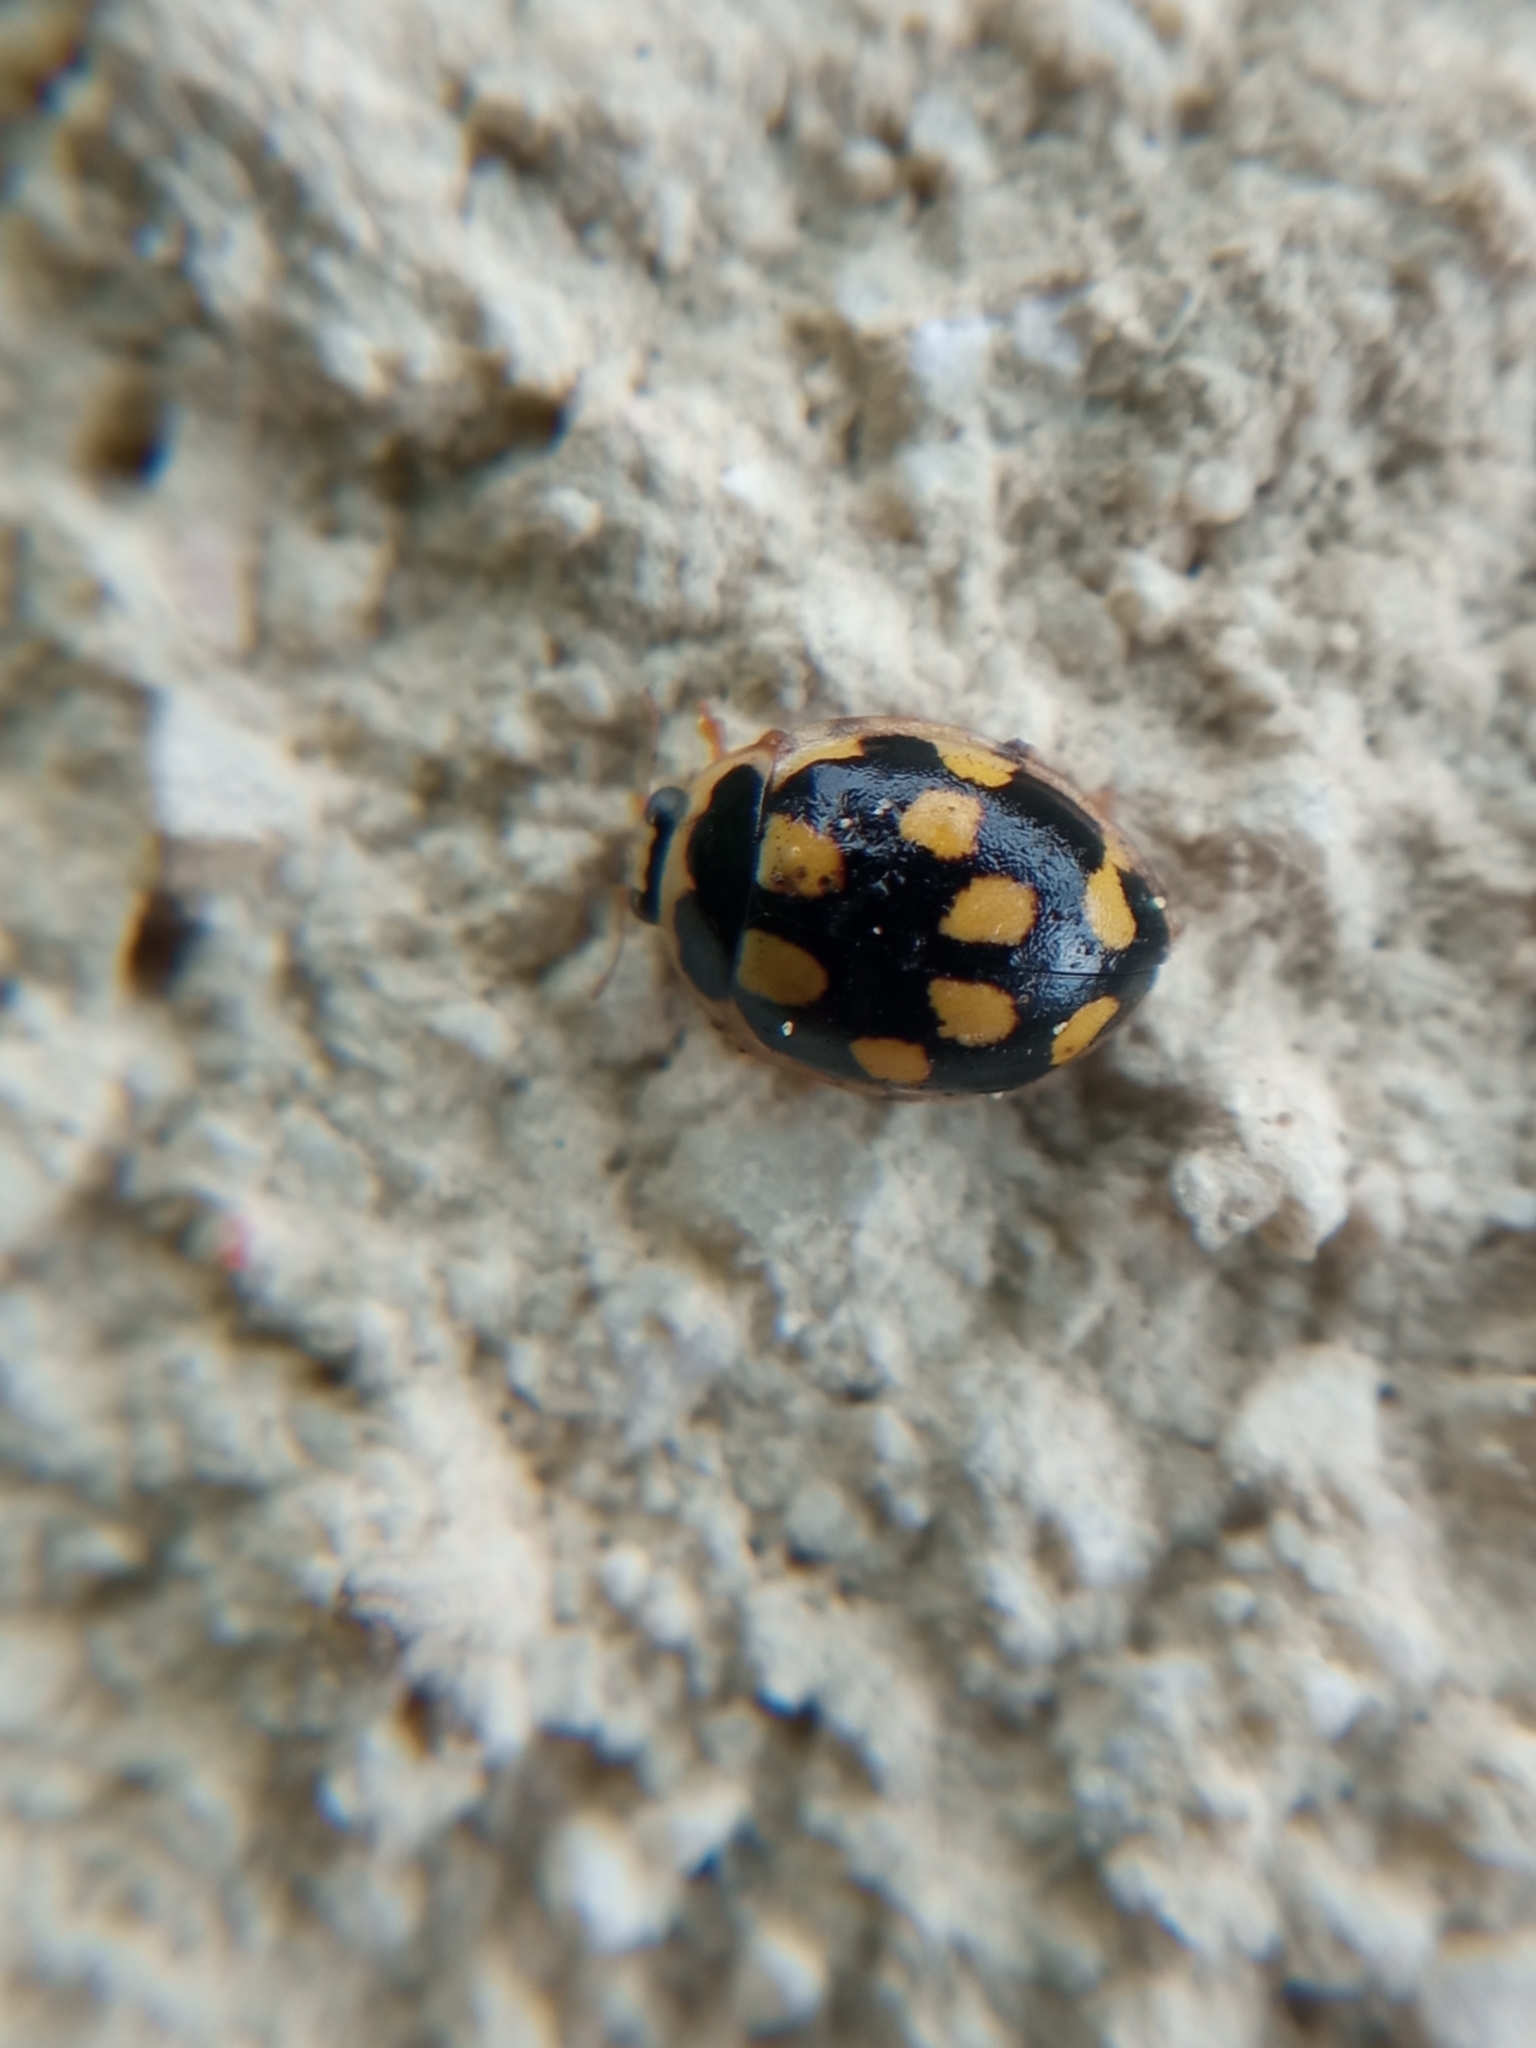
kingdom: Animalia
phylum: Arthropoda
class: Insecta
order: Coleoptera
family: Coccinellidae
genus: Propylaea
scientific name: Propylaea quatuordecimpunctata
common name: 14-spotted ladybird beetle
